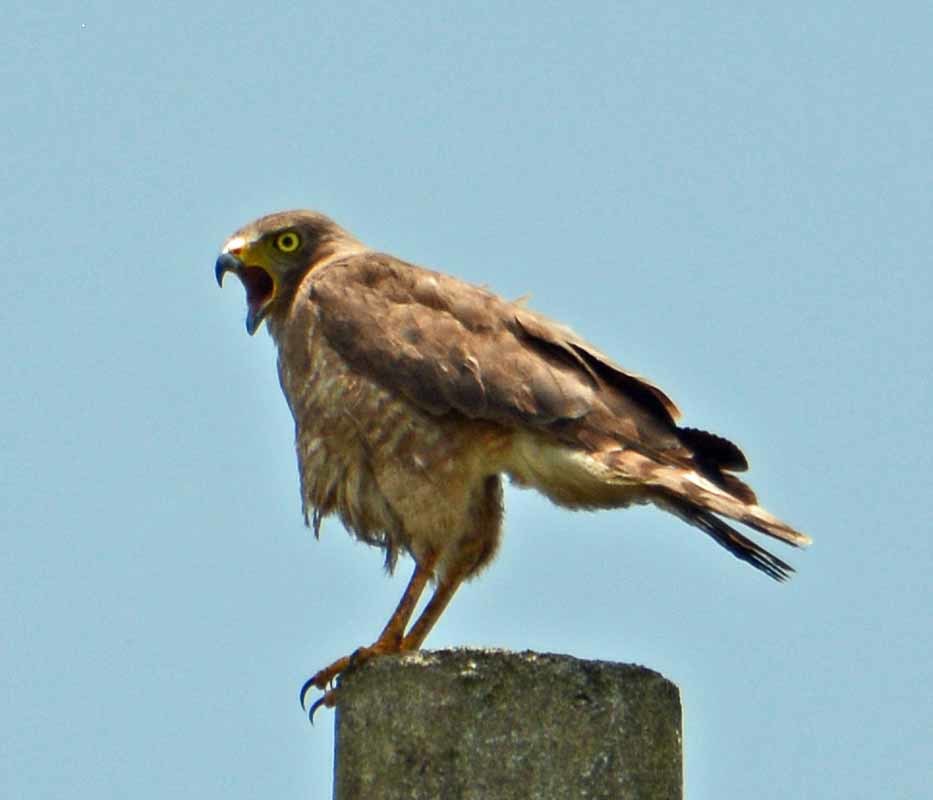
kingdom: Animalia
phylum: Chordata
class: Aves
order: Accipitriformes
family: Accipitridae
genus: Rupornis
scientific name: Rupornis magnirostris
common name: Roadside hawk
